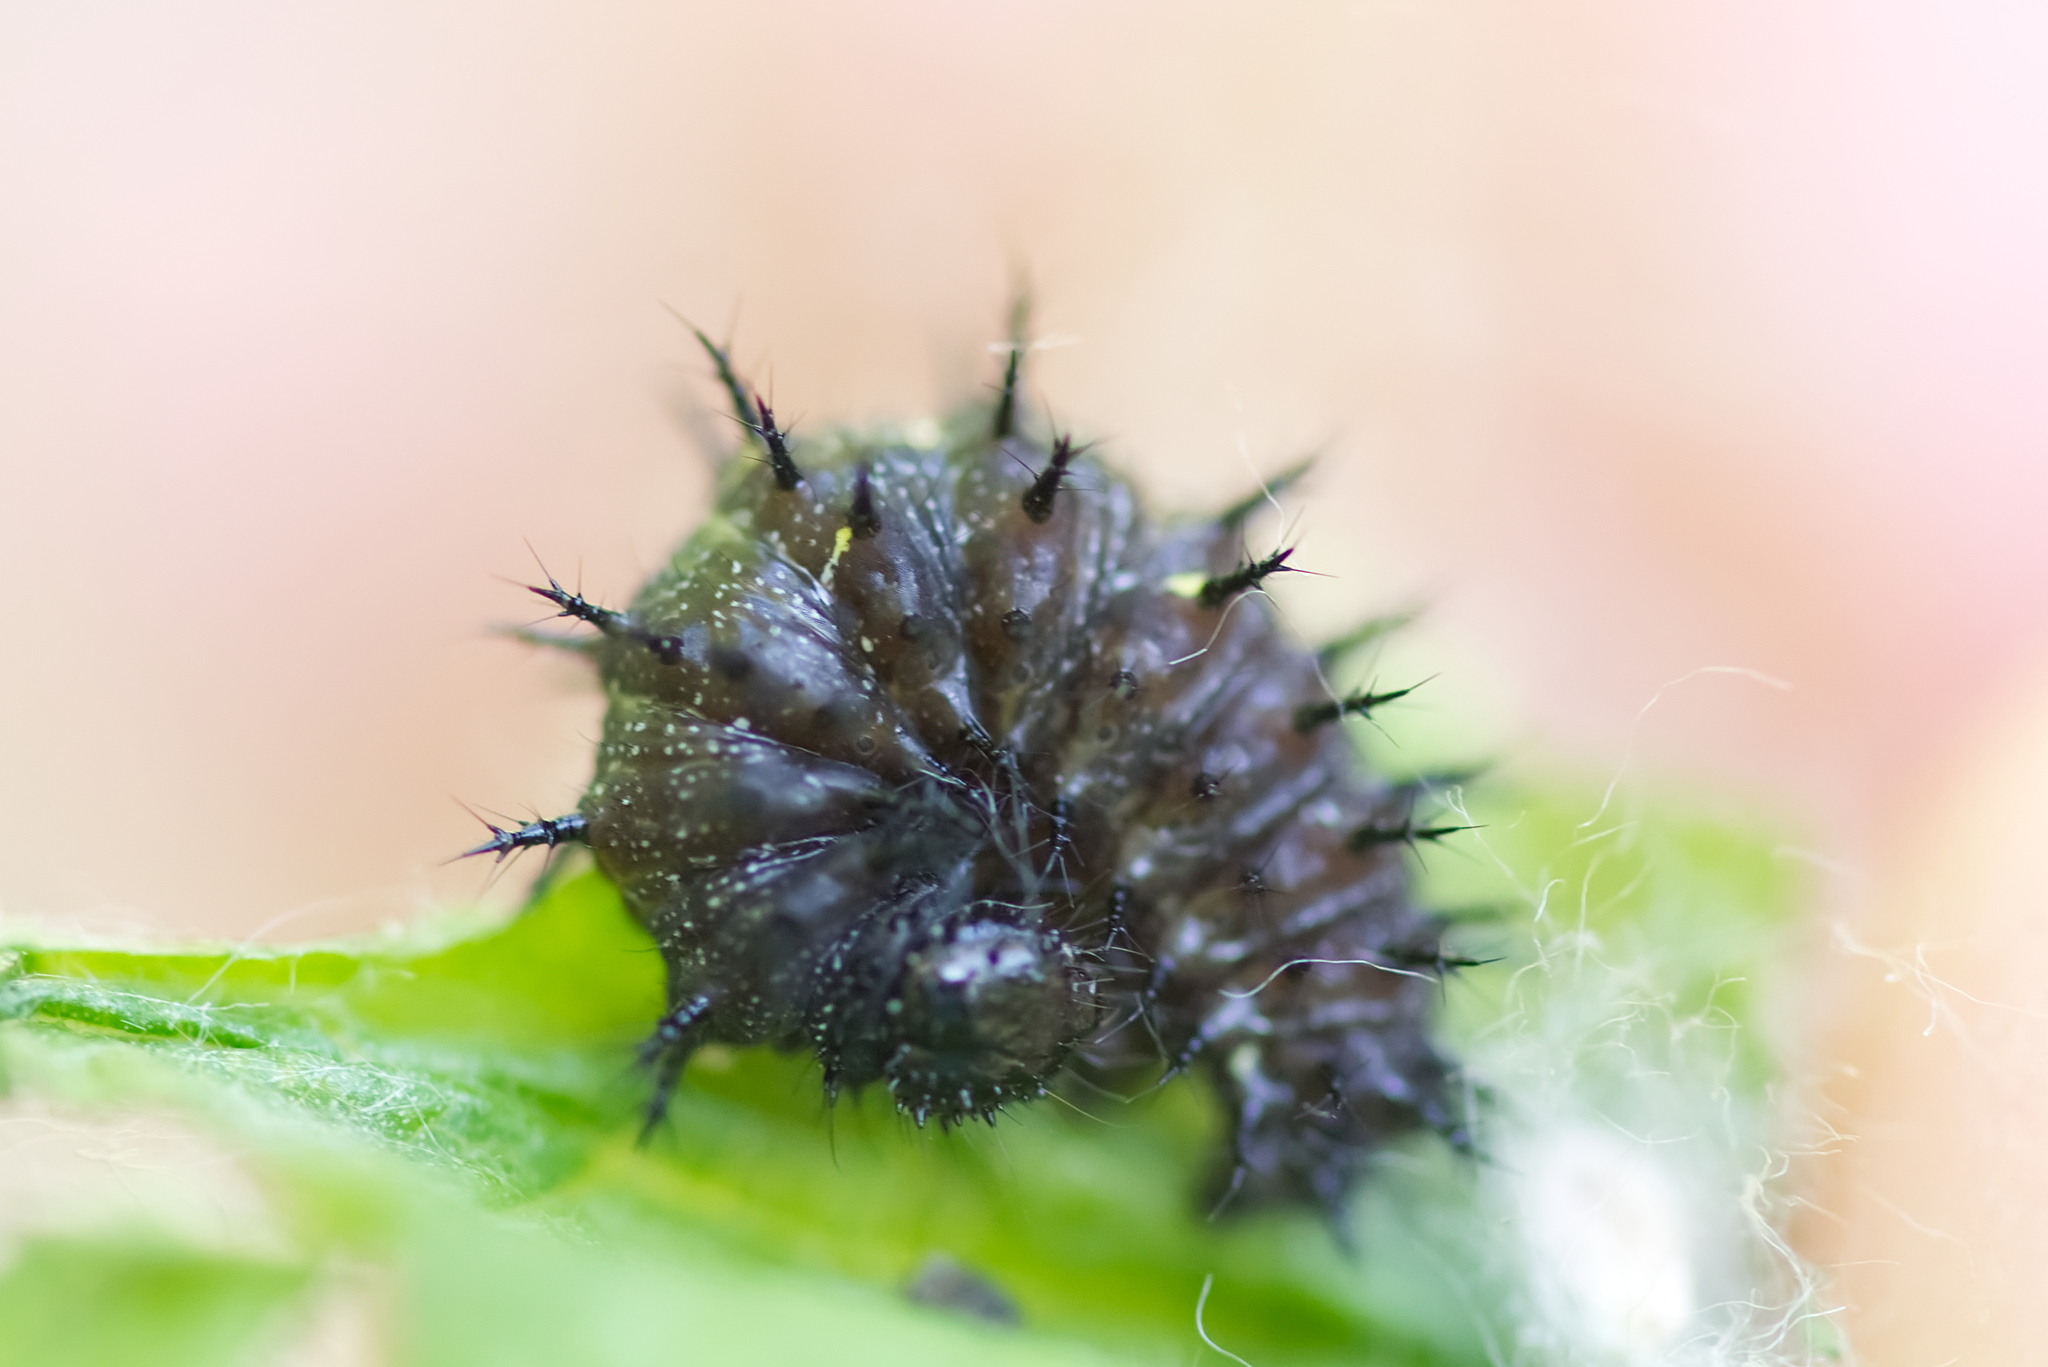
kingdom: Animalia
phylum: Arthropoda
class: Insecta
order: Lepidoptera
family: Nymphalidae
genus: Vanessa
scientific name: Vanessa atalanta
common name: Red admiral
